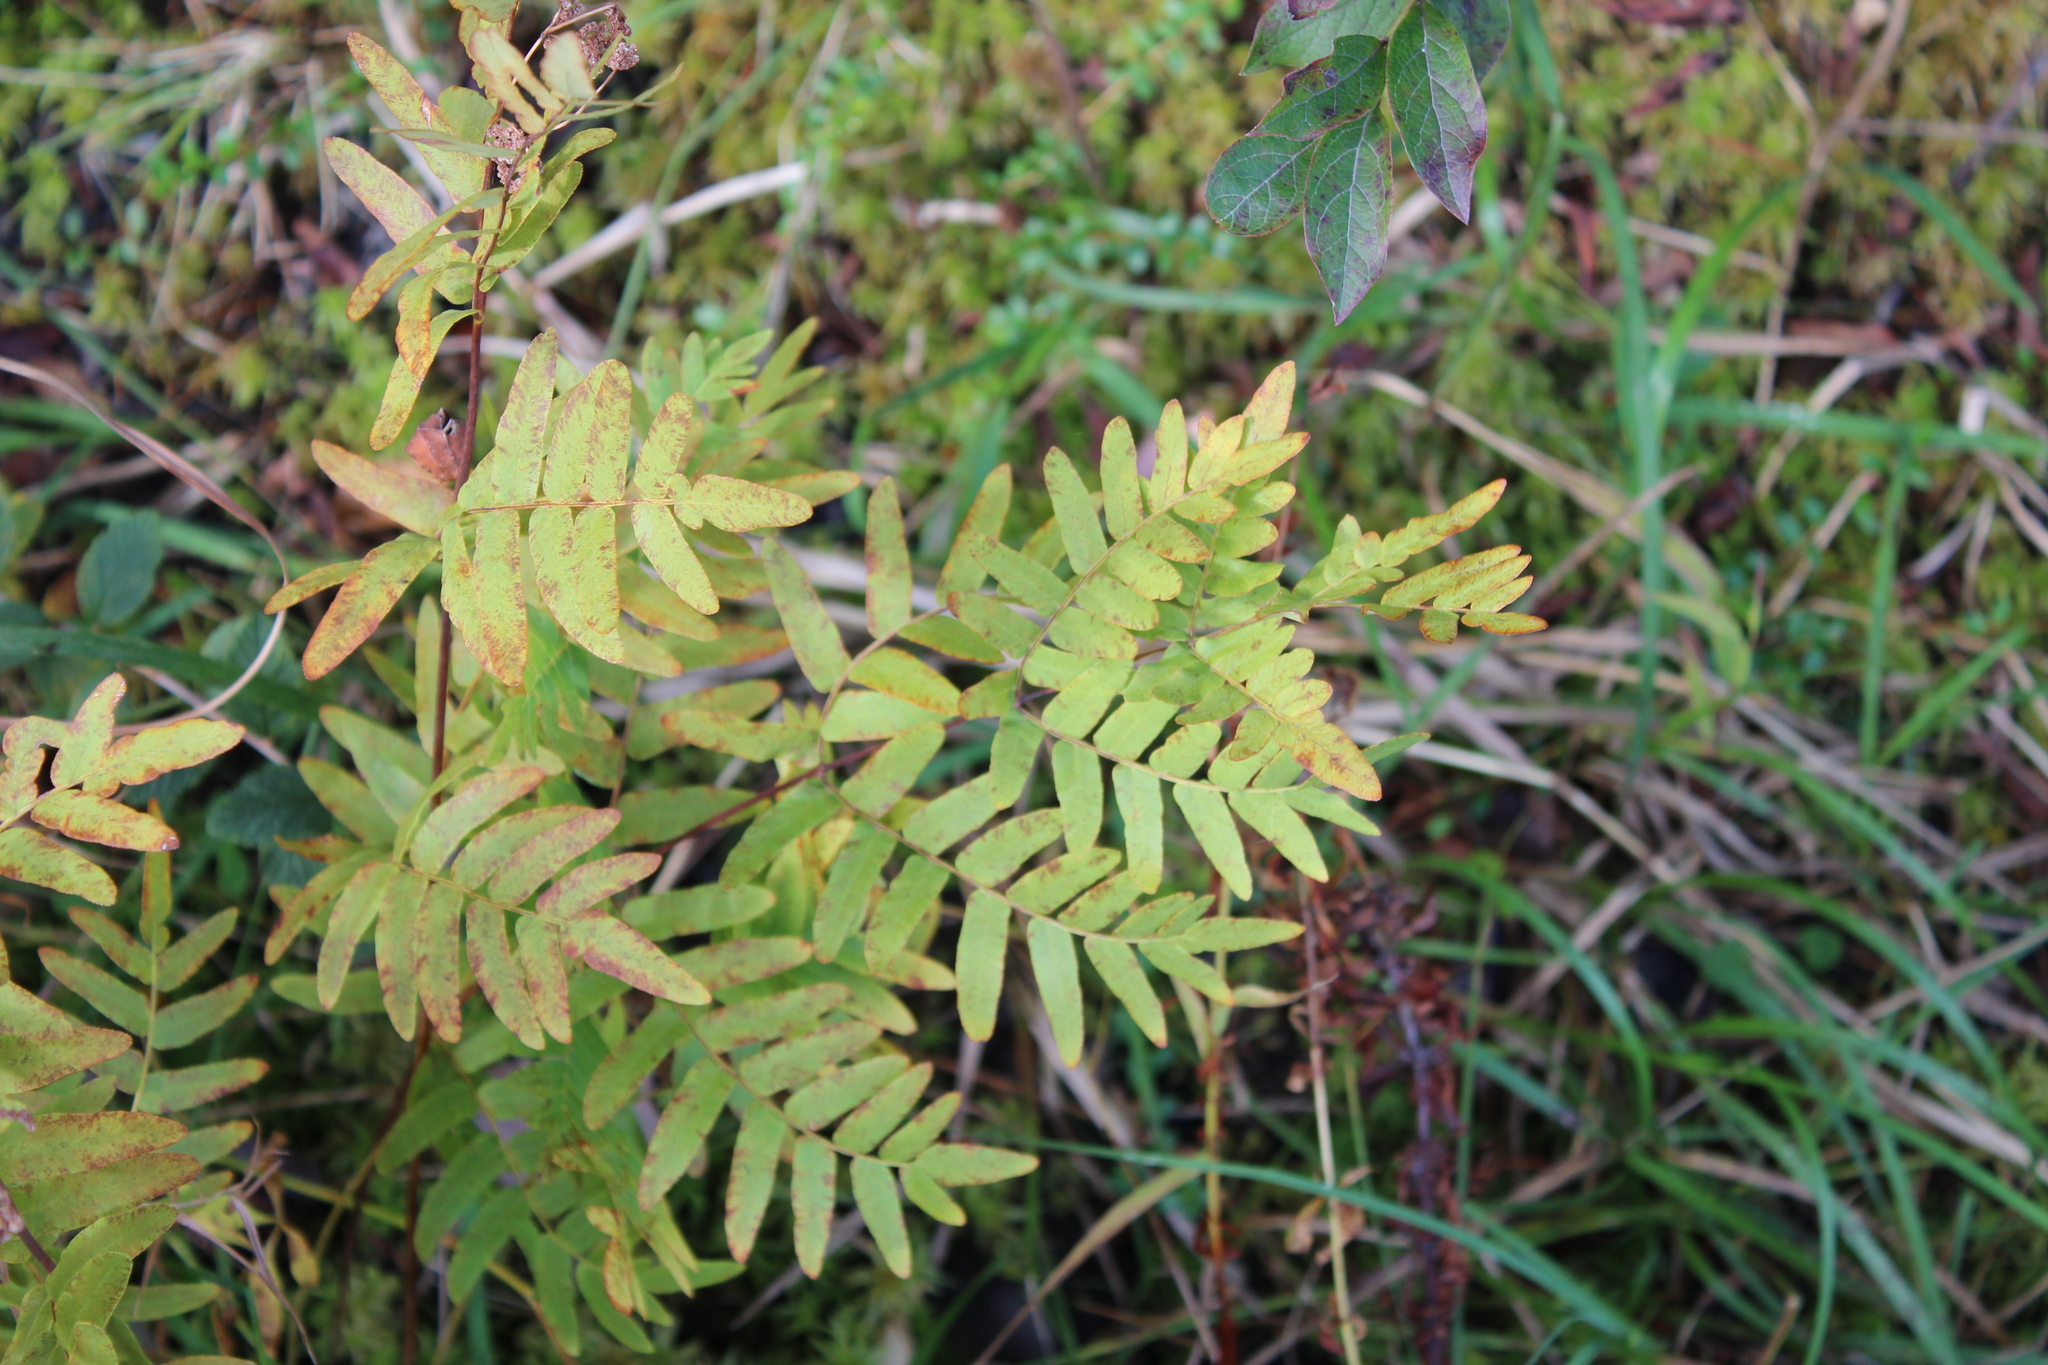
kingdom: Plantae
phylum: Tracheophyta
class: Polypodiopsida
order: Osmundales
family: Osmundaceae
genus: Osmunda
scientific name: Osmunda spectabilis
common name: American royal fern
